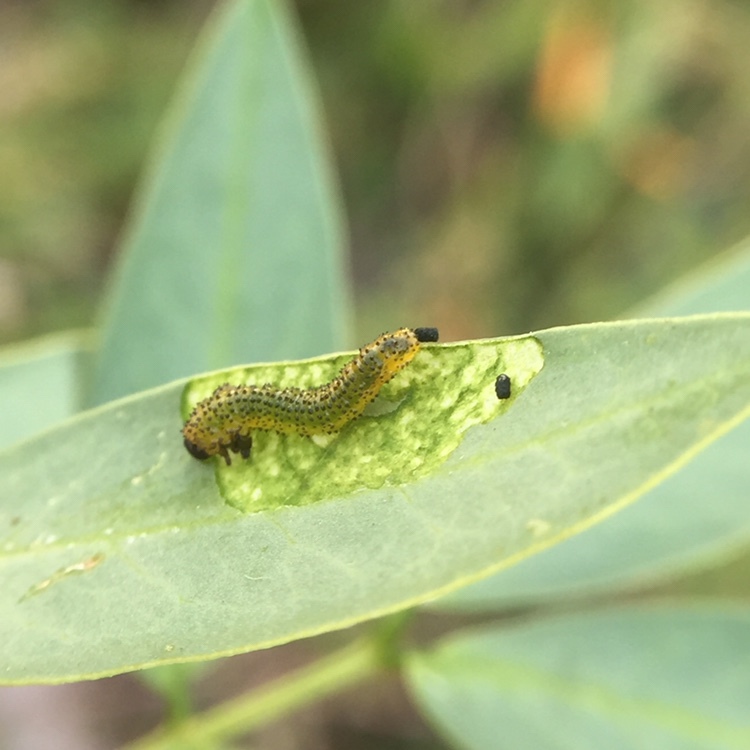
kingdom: Animalia
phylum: Arthropoda
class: Insecta
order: Hymenoptera
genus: Adurgoa
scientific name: Adurgoa
